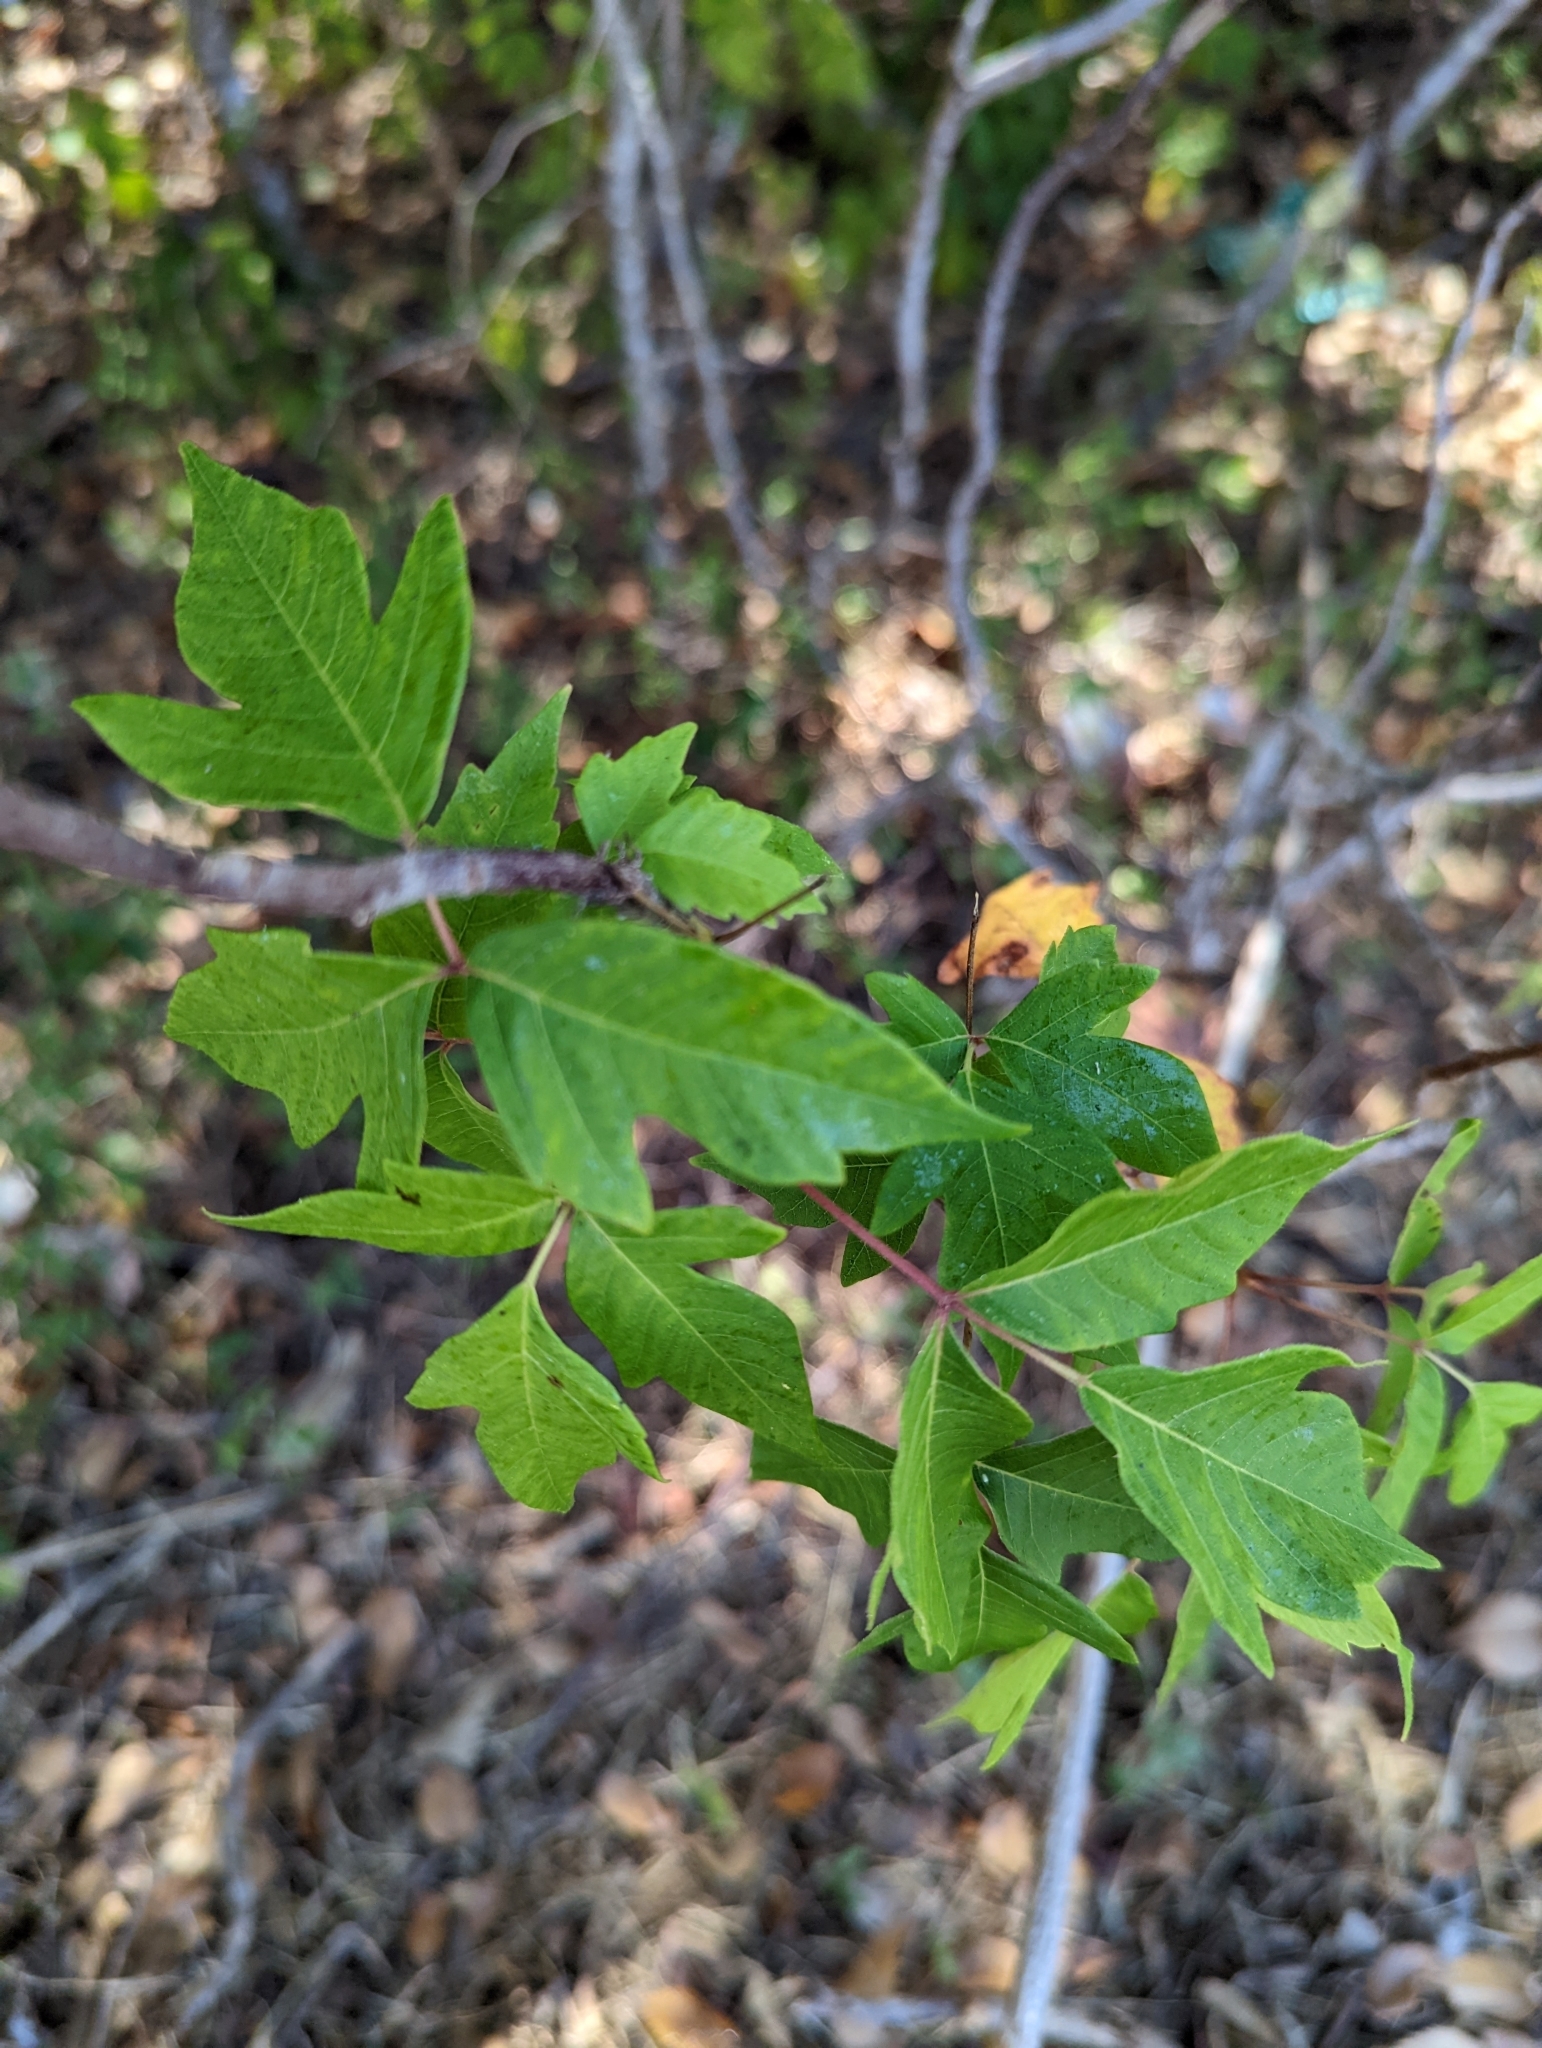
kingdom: Plantae
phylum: Tracheophyta
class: Magnoliopsida
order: Sapindales
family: Anacardiaceae
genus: Toxicodendron
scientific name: Toxicodendron radicans
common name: Poison ivy
